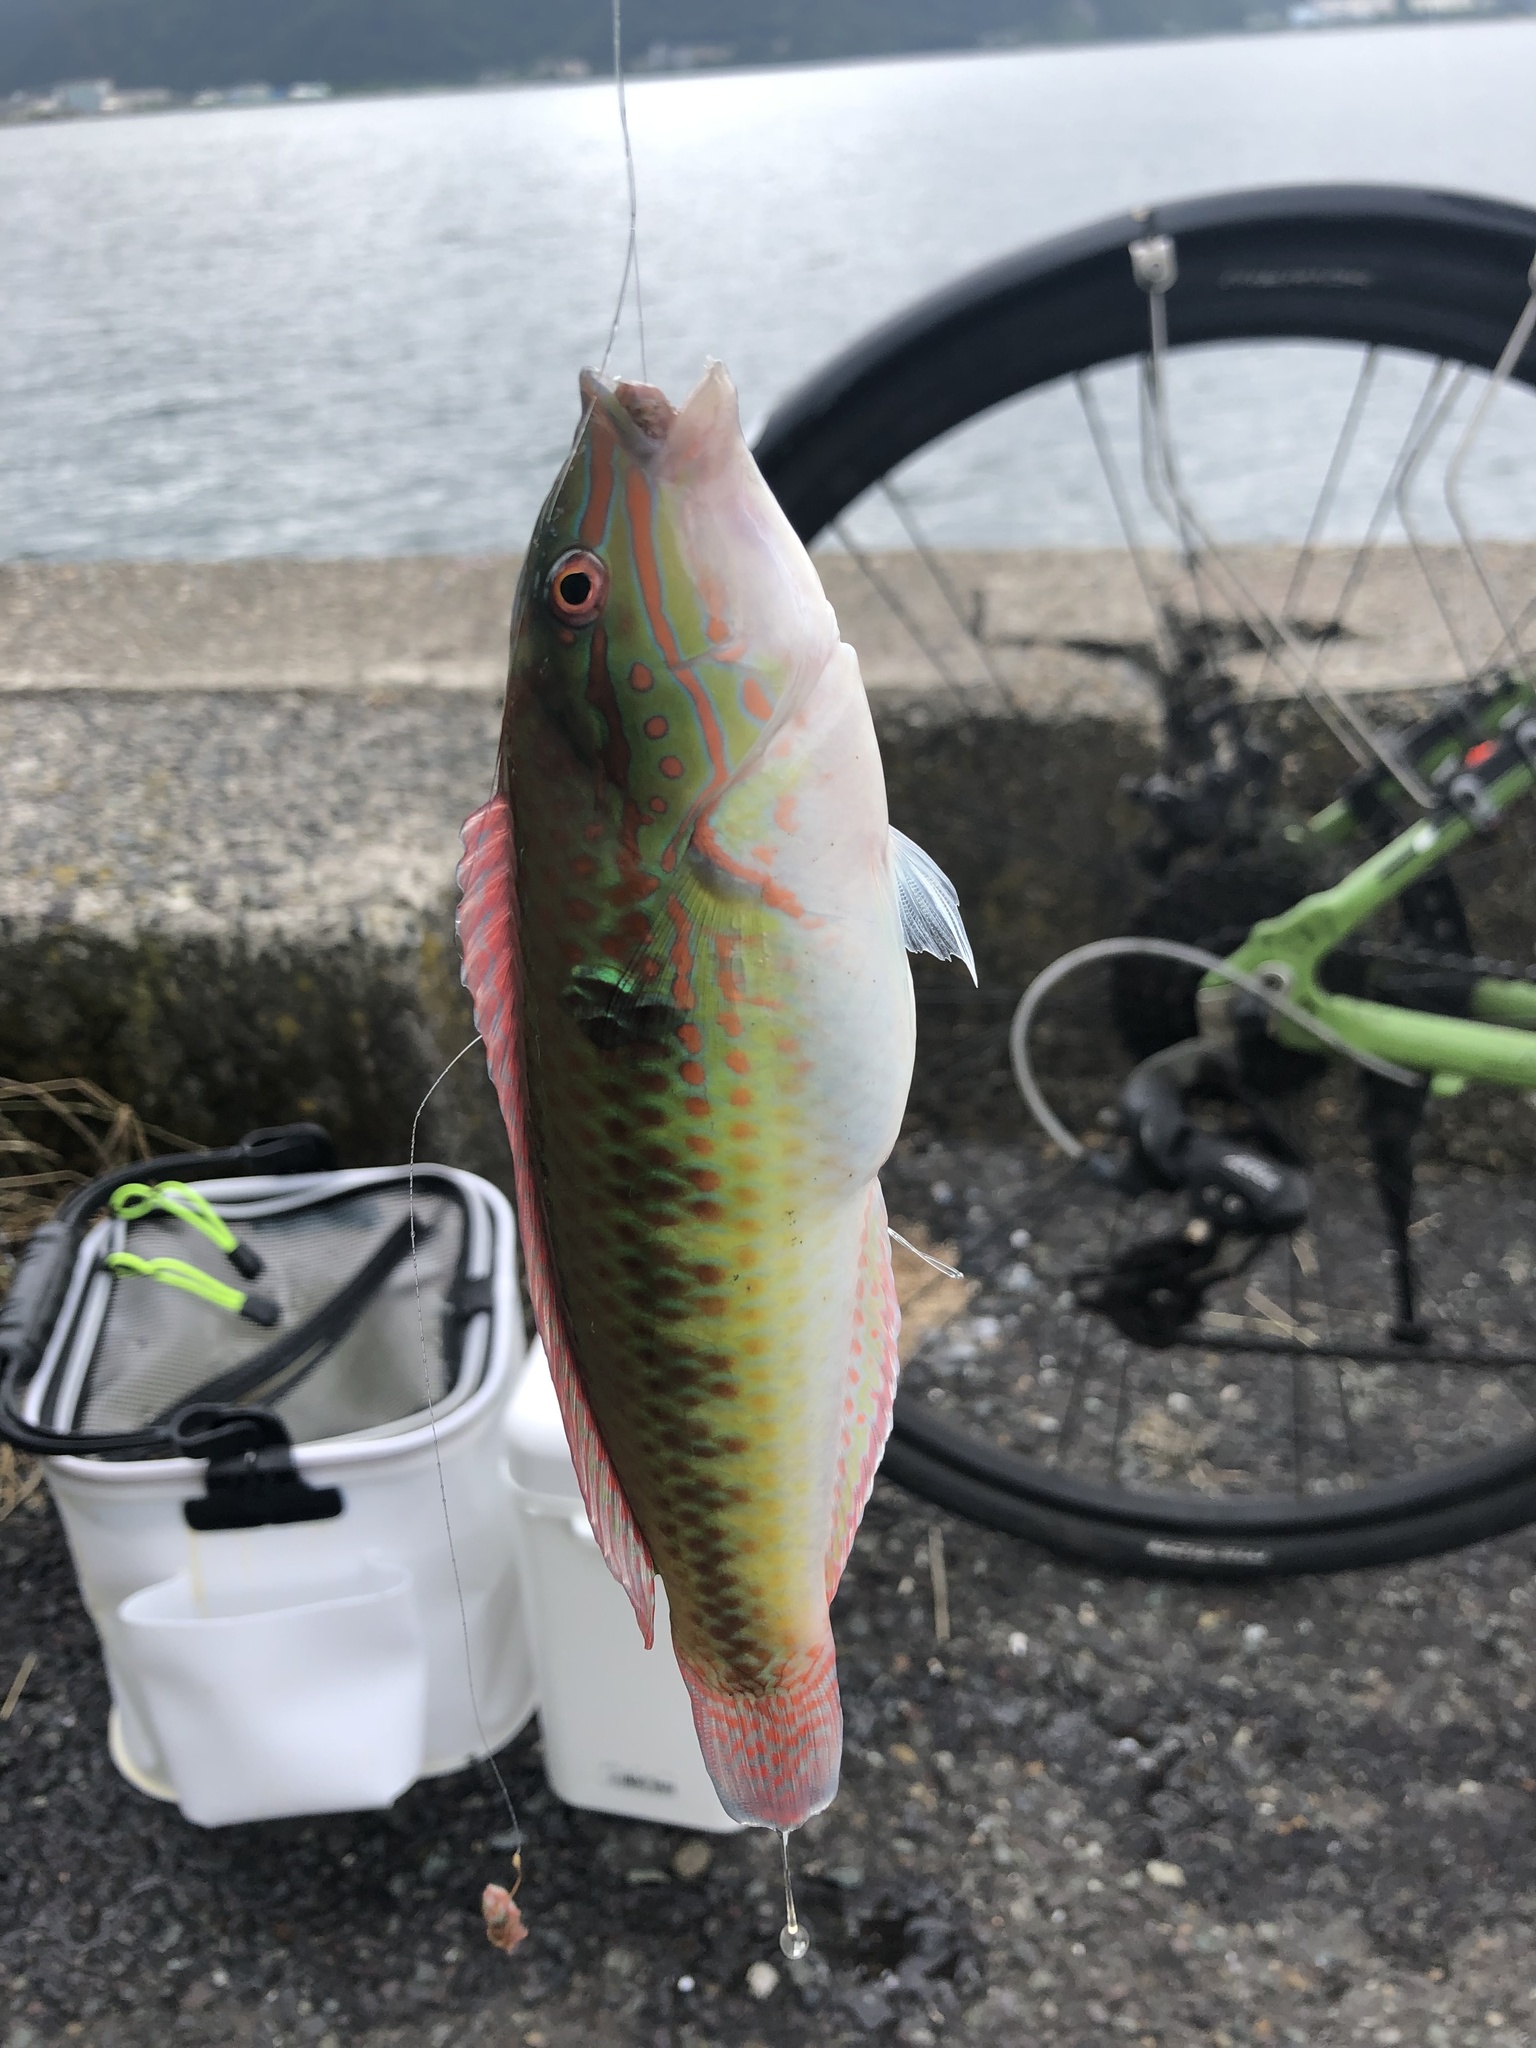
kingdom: Animalia
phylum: Chordata
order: Perciformes
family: Labridae
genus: Parajulis
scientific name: Parajulis poecilepterus
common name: Multicolorfin rainbowfish
